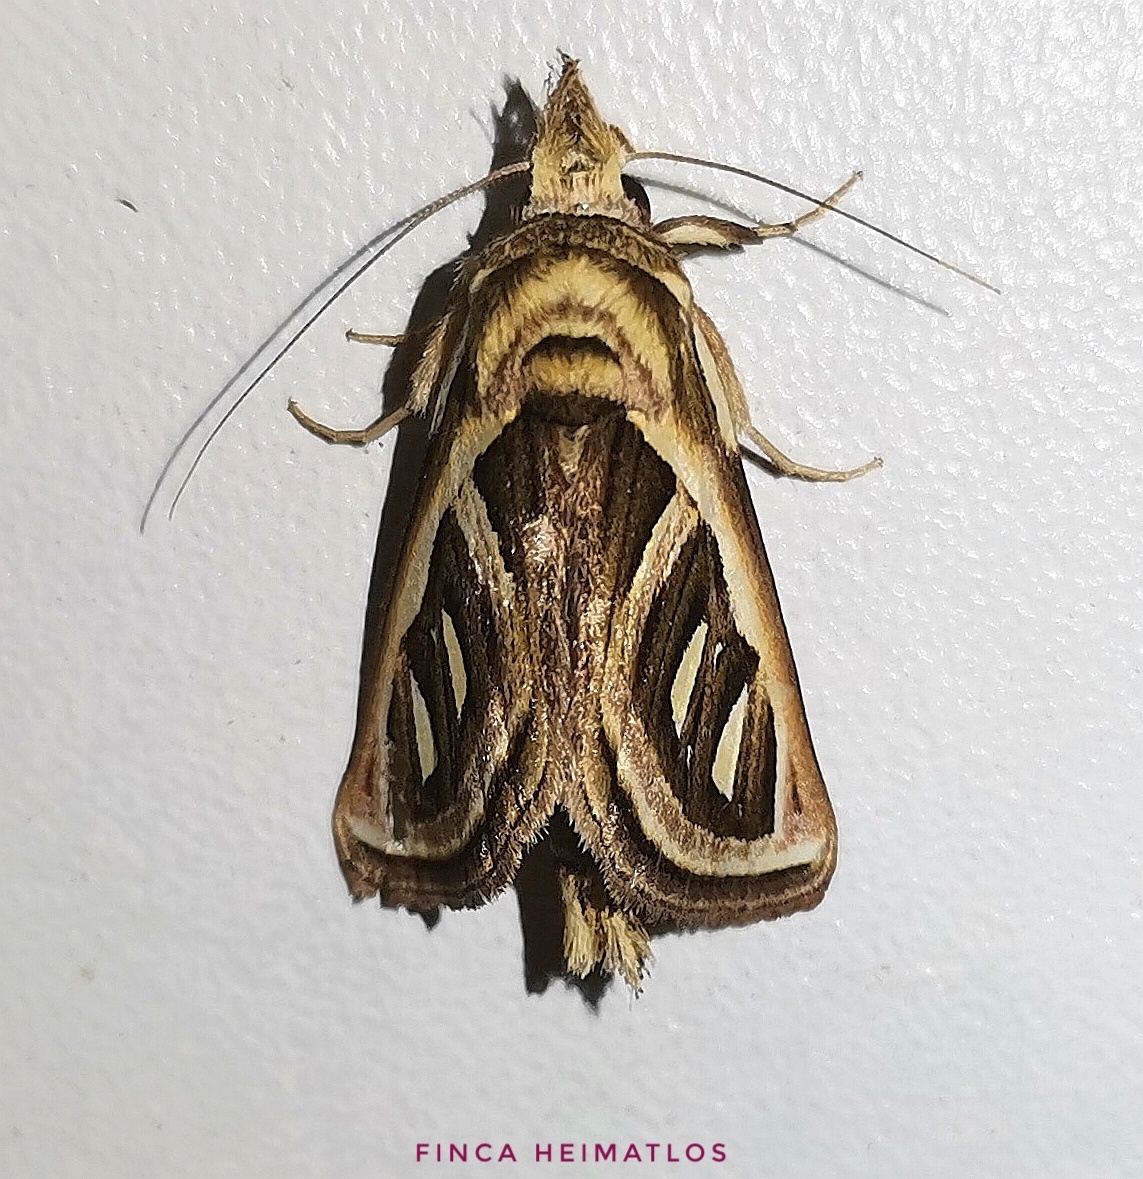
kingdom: Animalia
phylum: Arthropoda
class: Insecta
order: Lepidoptera
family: Notodontidae
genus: Ankale
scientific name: Ankale
